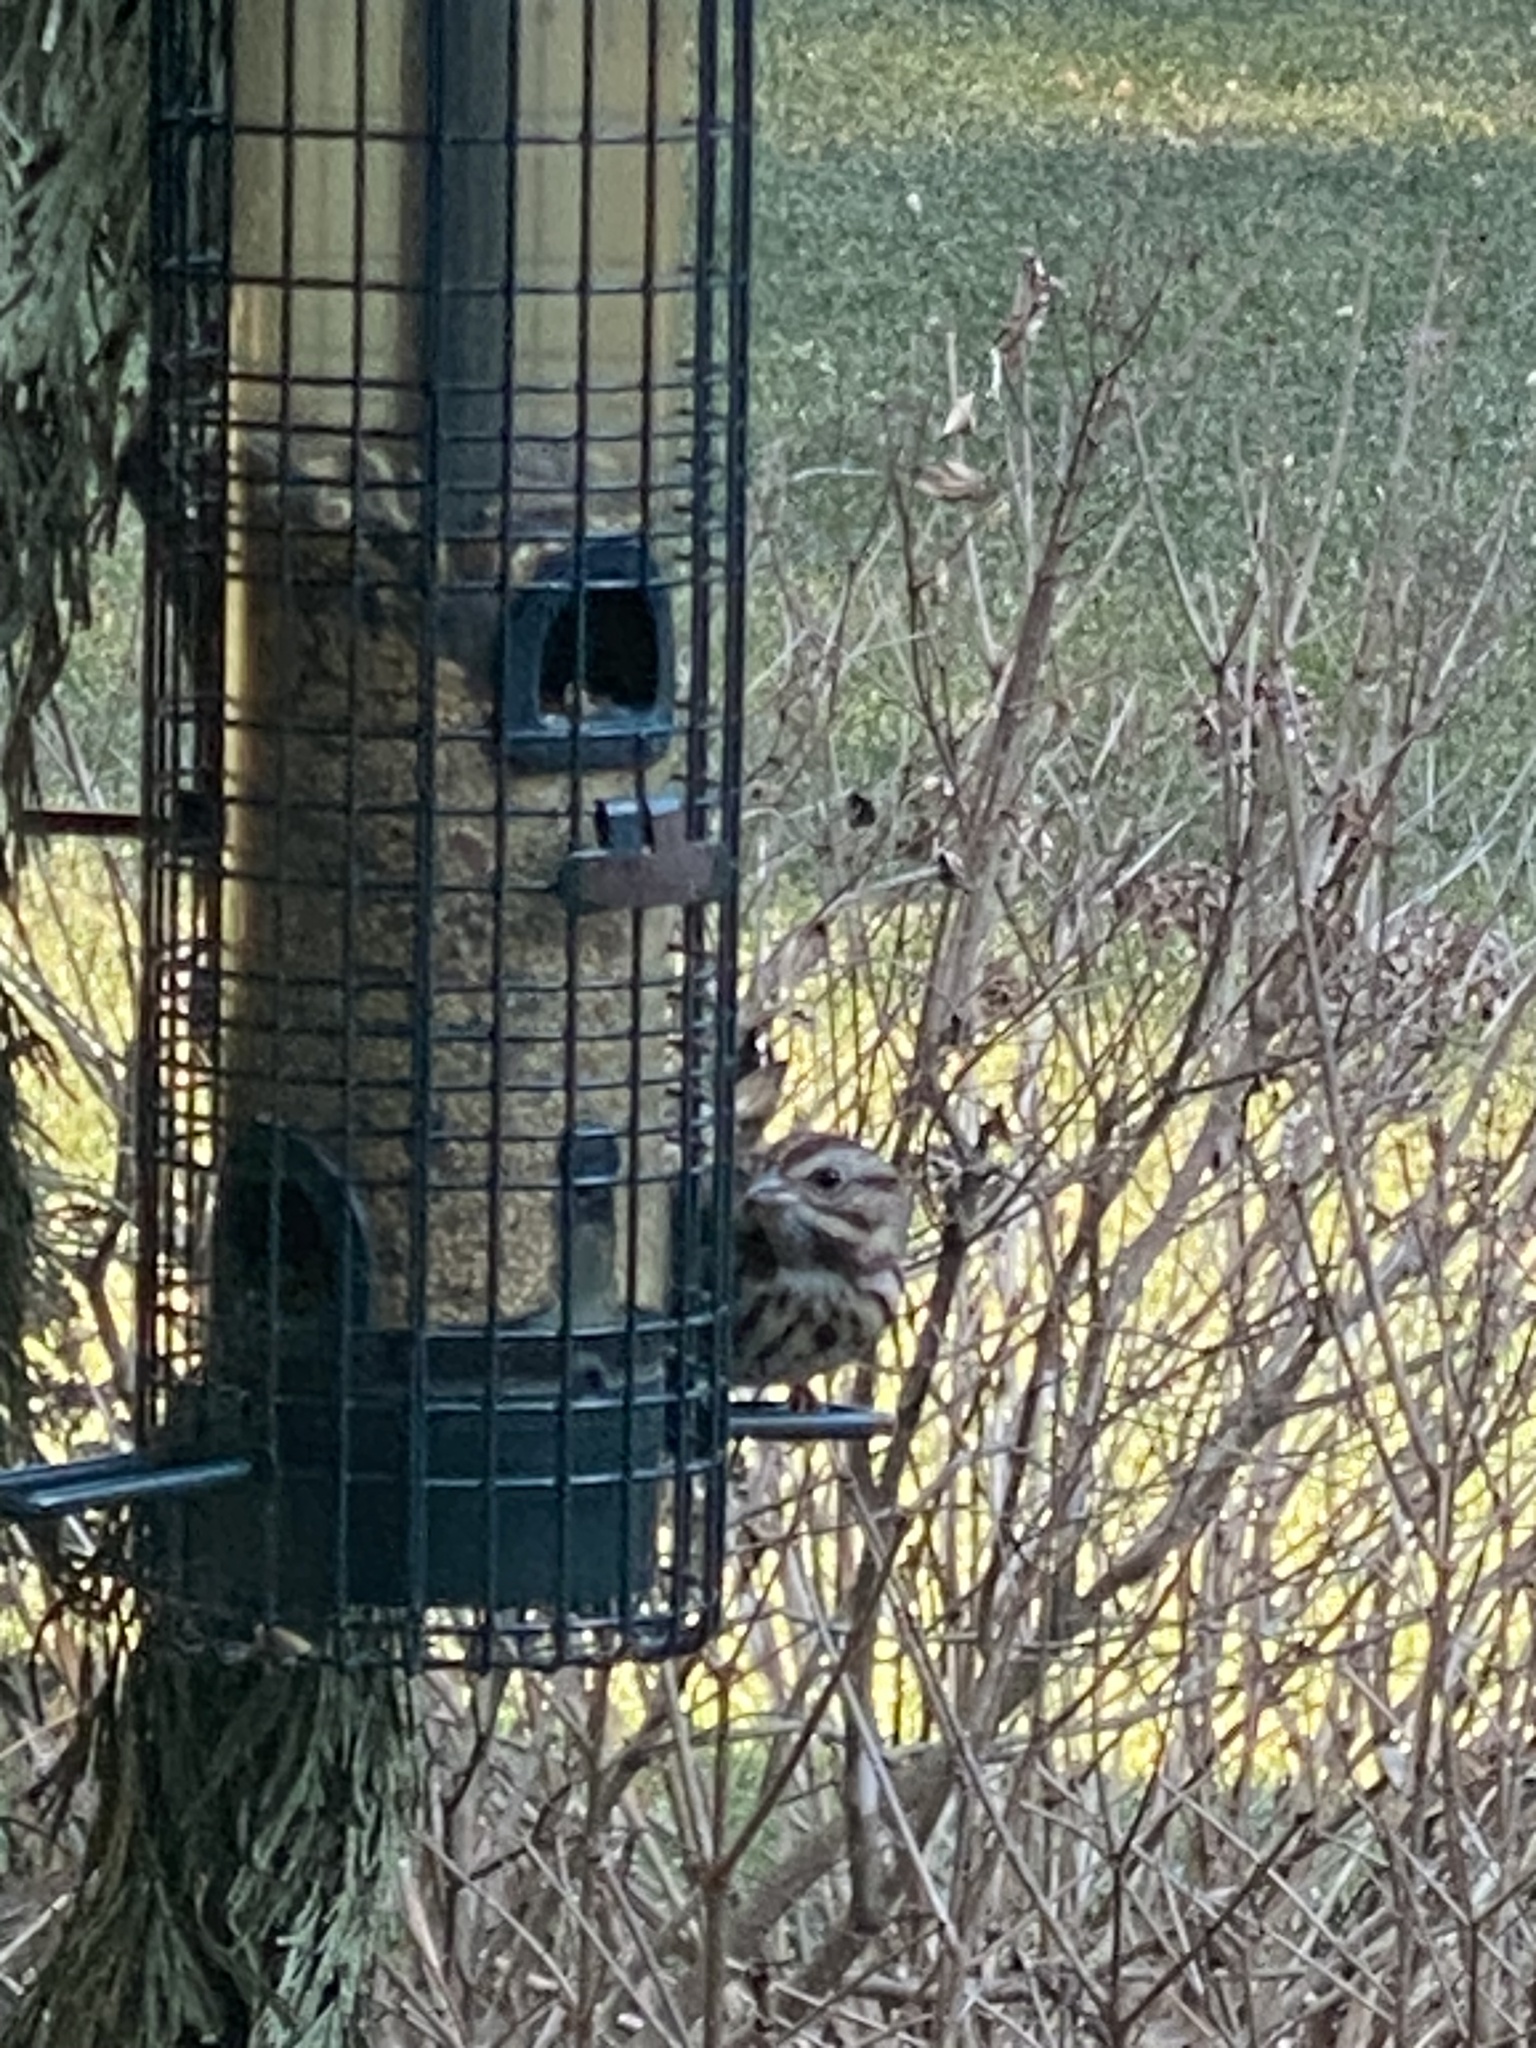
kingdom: Animalia
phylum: Chordata
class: Aves
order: Passeriformes
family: Passerellidae
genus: Melospiza
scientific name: Melospiza melodia
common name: Song sparrow
